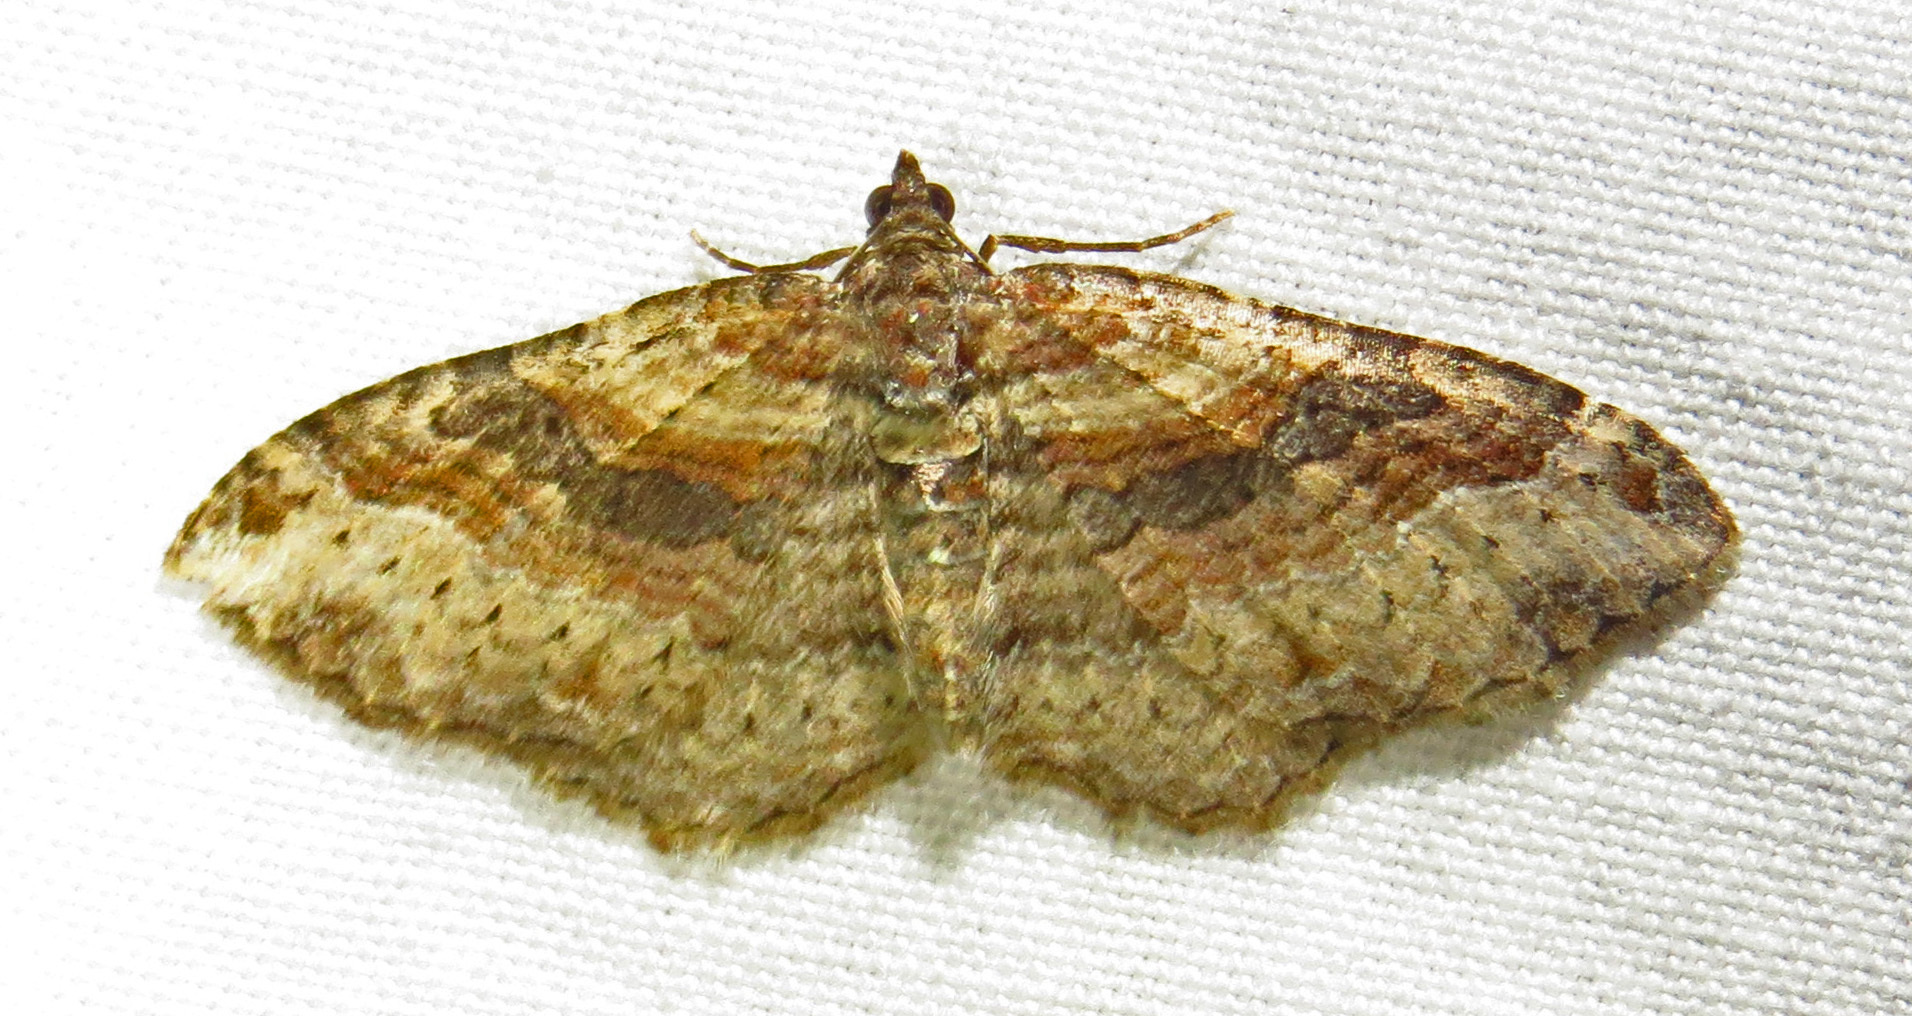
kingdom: Animalia
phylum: Arthropoda
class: Insecta
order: Lepidoptera
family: Geometridae
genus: Costaconvexa
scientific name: Costaconvexa centrostrigaria
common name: Bent-line carpet
